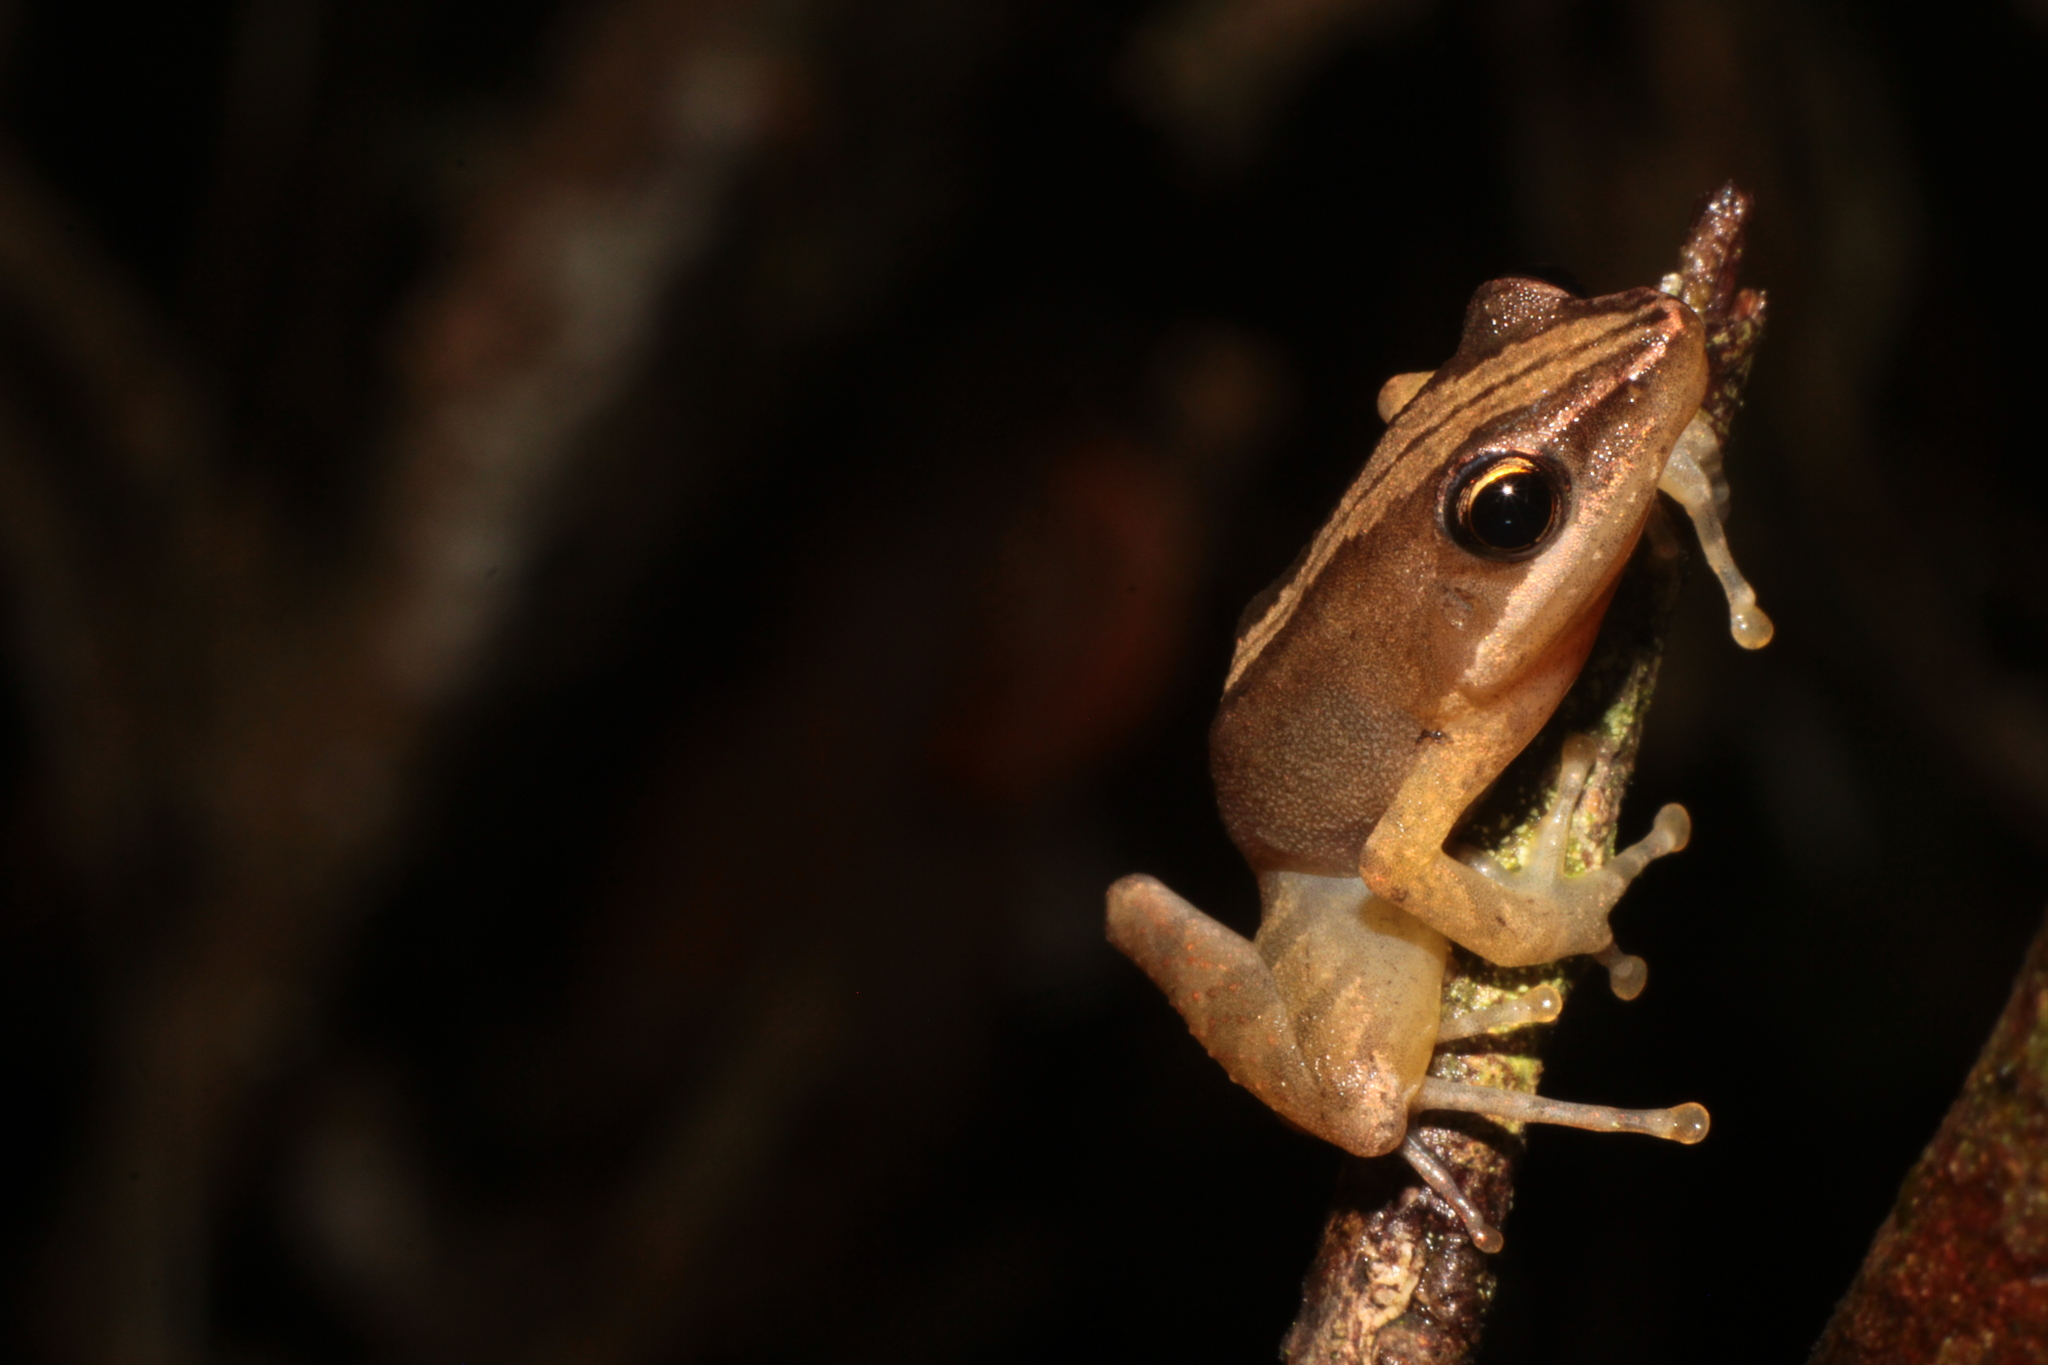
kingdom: Animalia
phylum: Chordata
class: Amphibia
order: Anura
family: Mantellidae
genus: Blommersia
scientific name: Blommersia blommersae
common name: Moramanga madagascar frog
